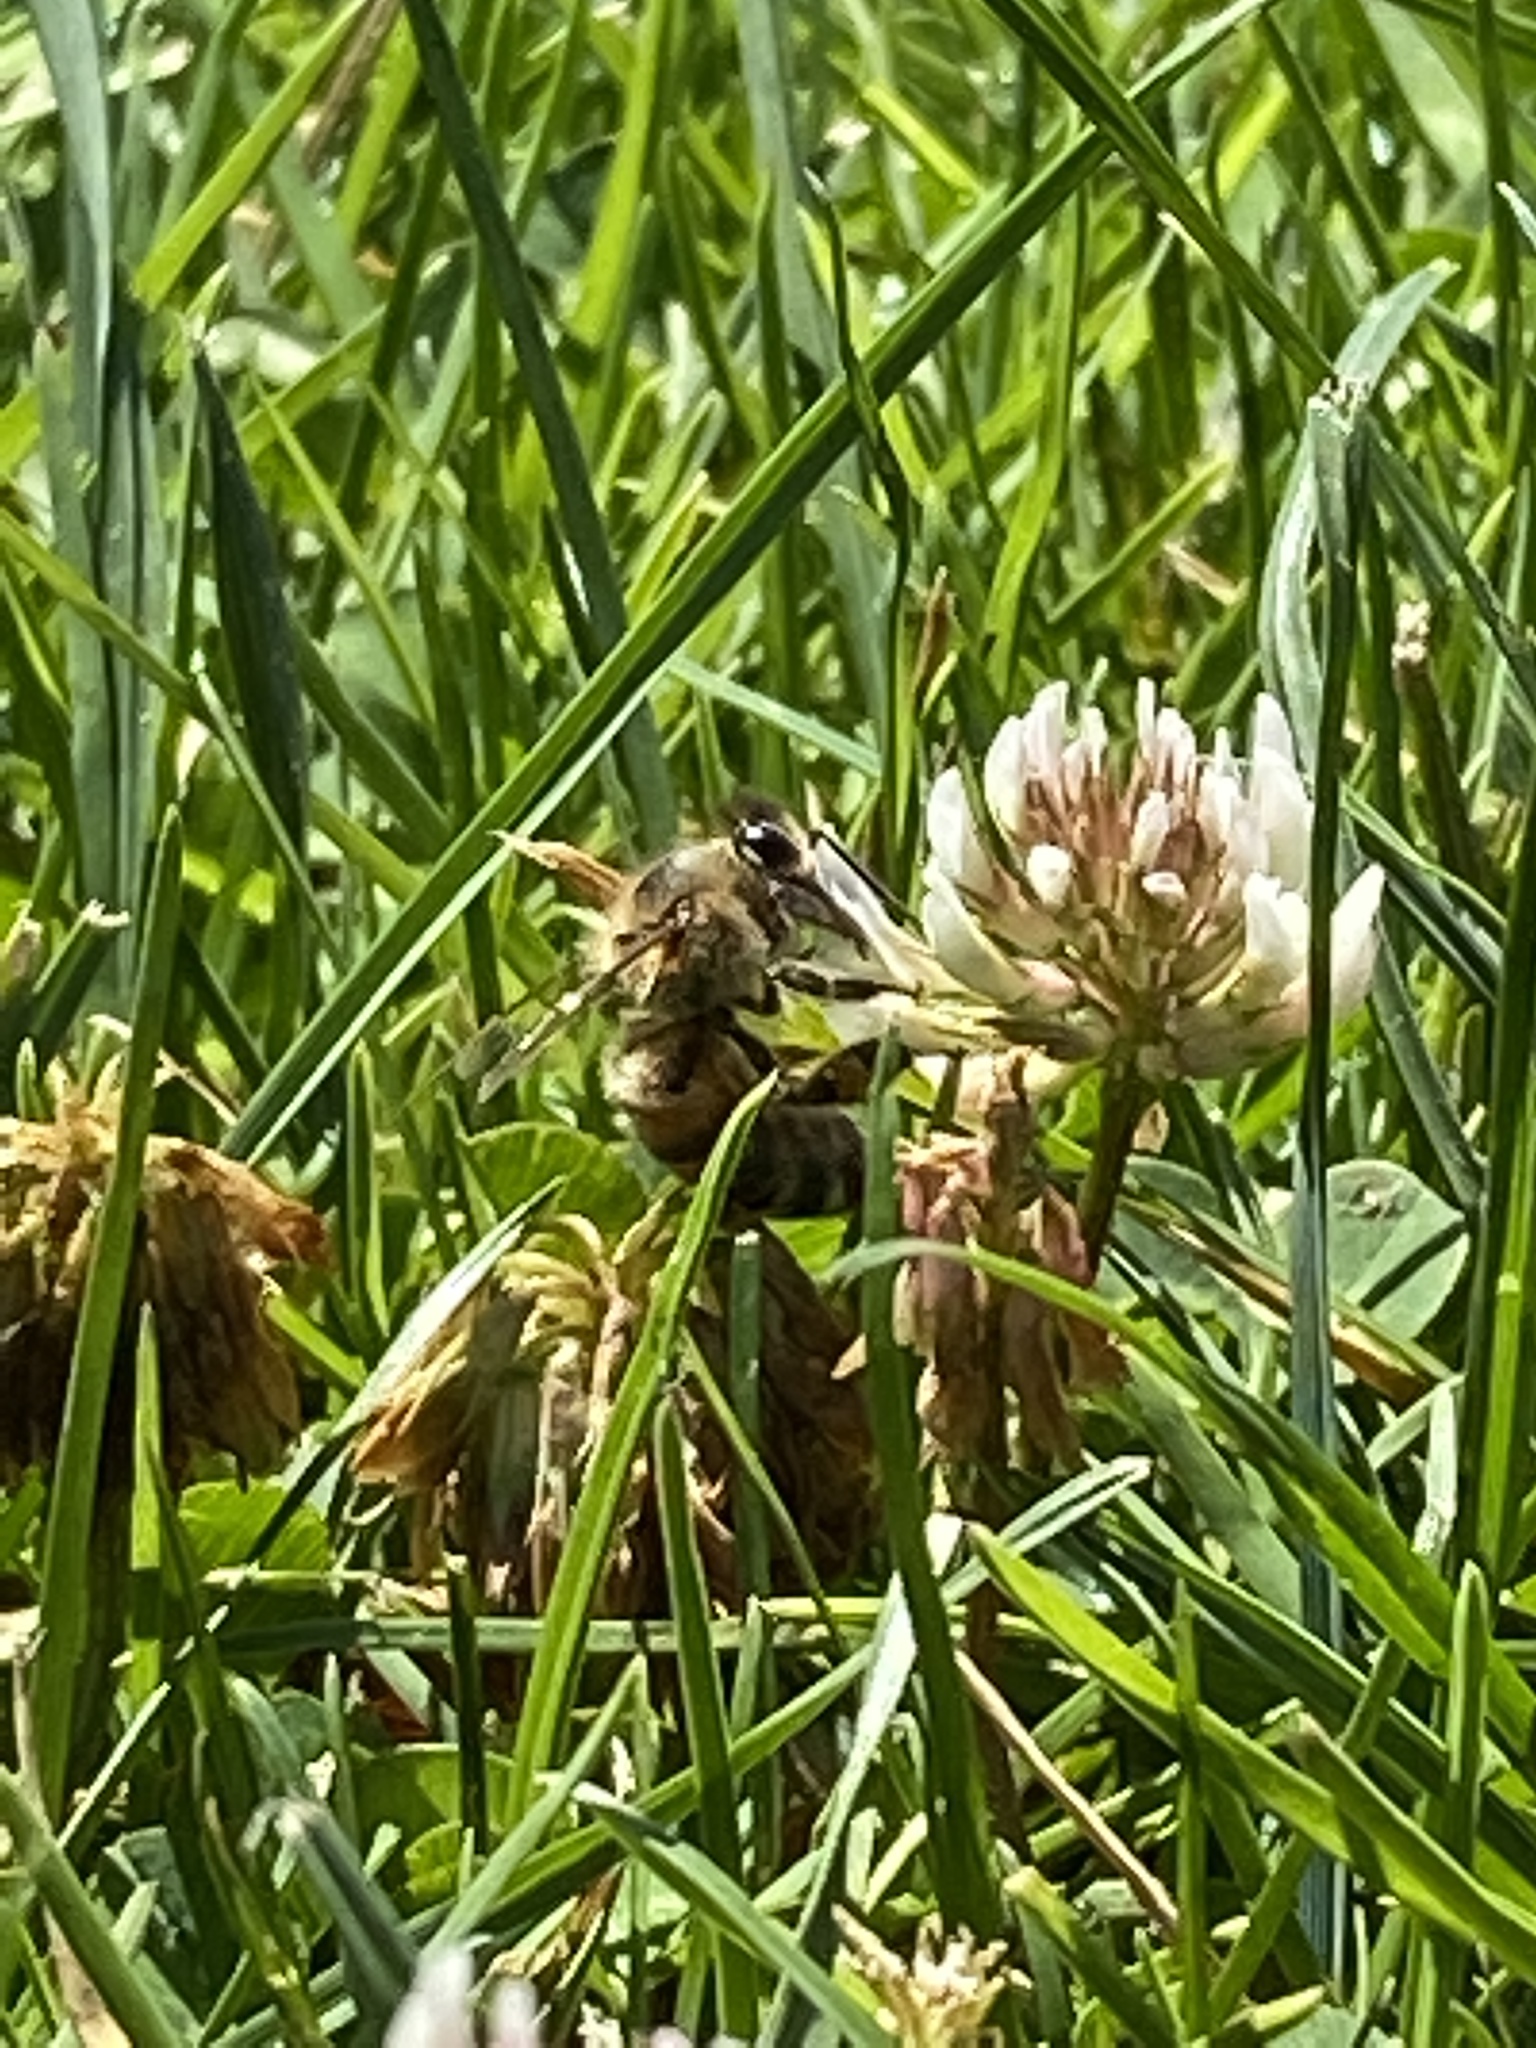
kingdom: Animalia
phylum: Arthropoda
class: Insecta
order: Hymenoptera
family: Apidae
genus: Apis
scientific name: Apis mellifera
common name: Honey bee
